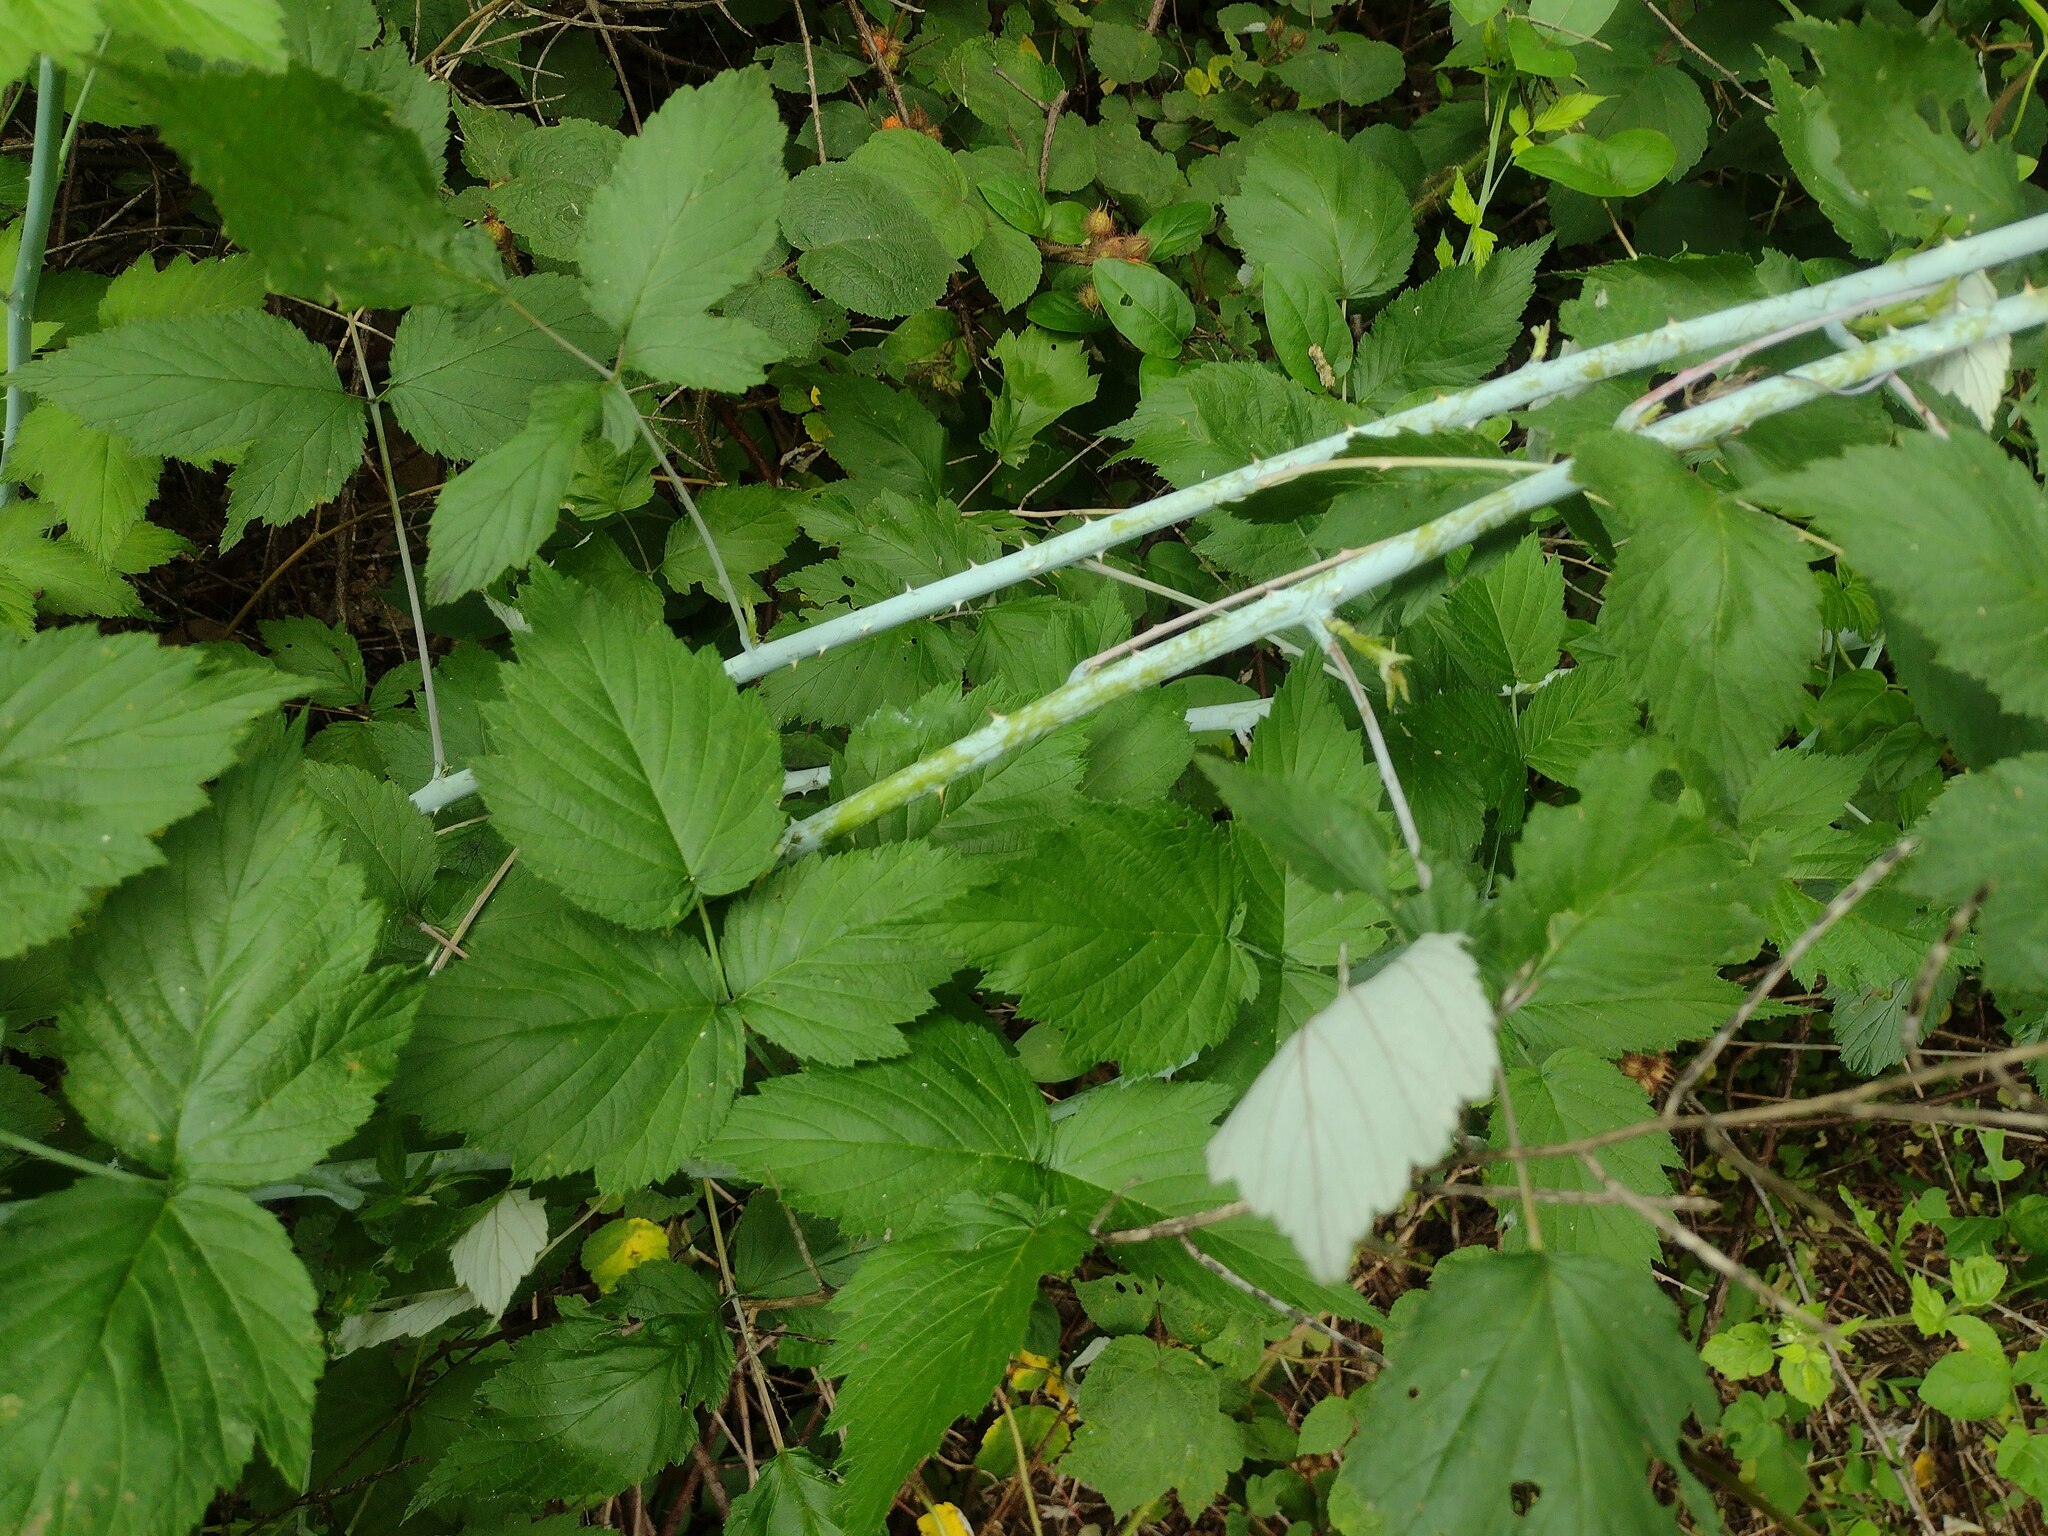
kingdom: Plantae
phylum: Tracheophyta
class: Magnoliopsida
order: Rosales
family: Rosaceae
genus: Rubus
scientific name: Rubus occidentalis
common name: Black raspberry
